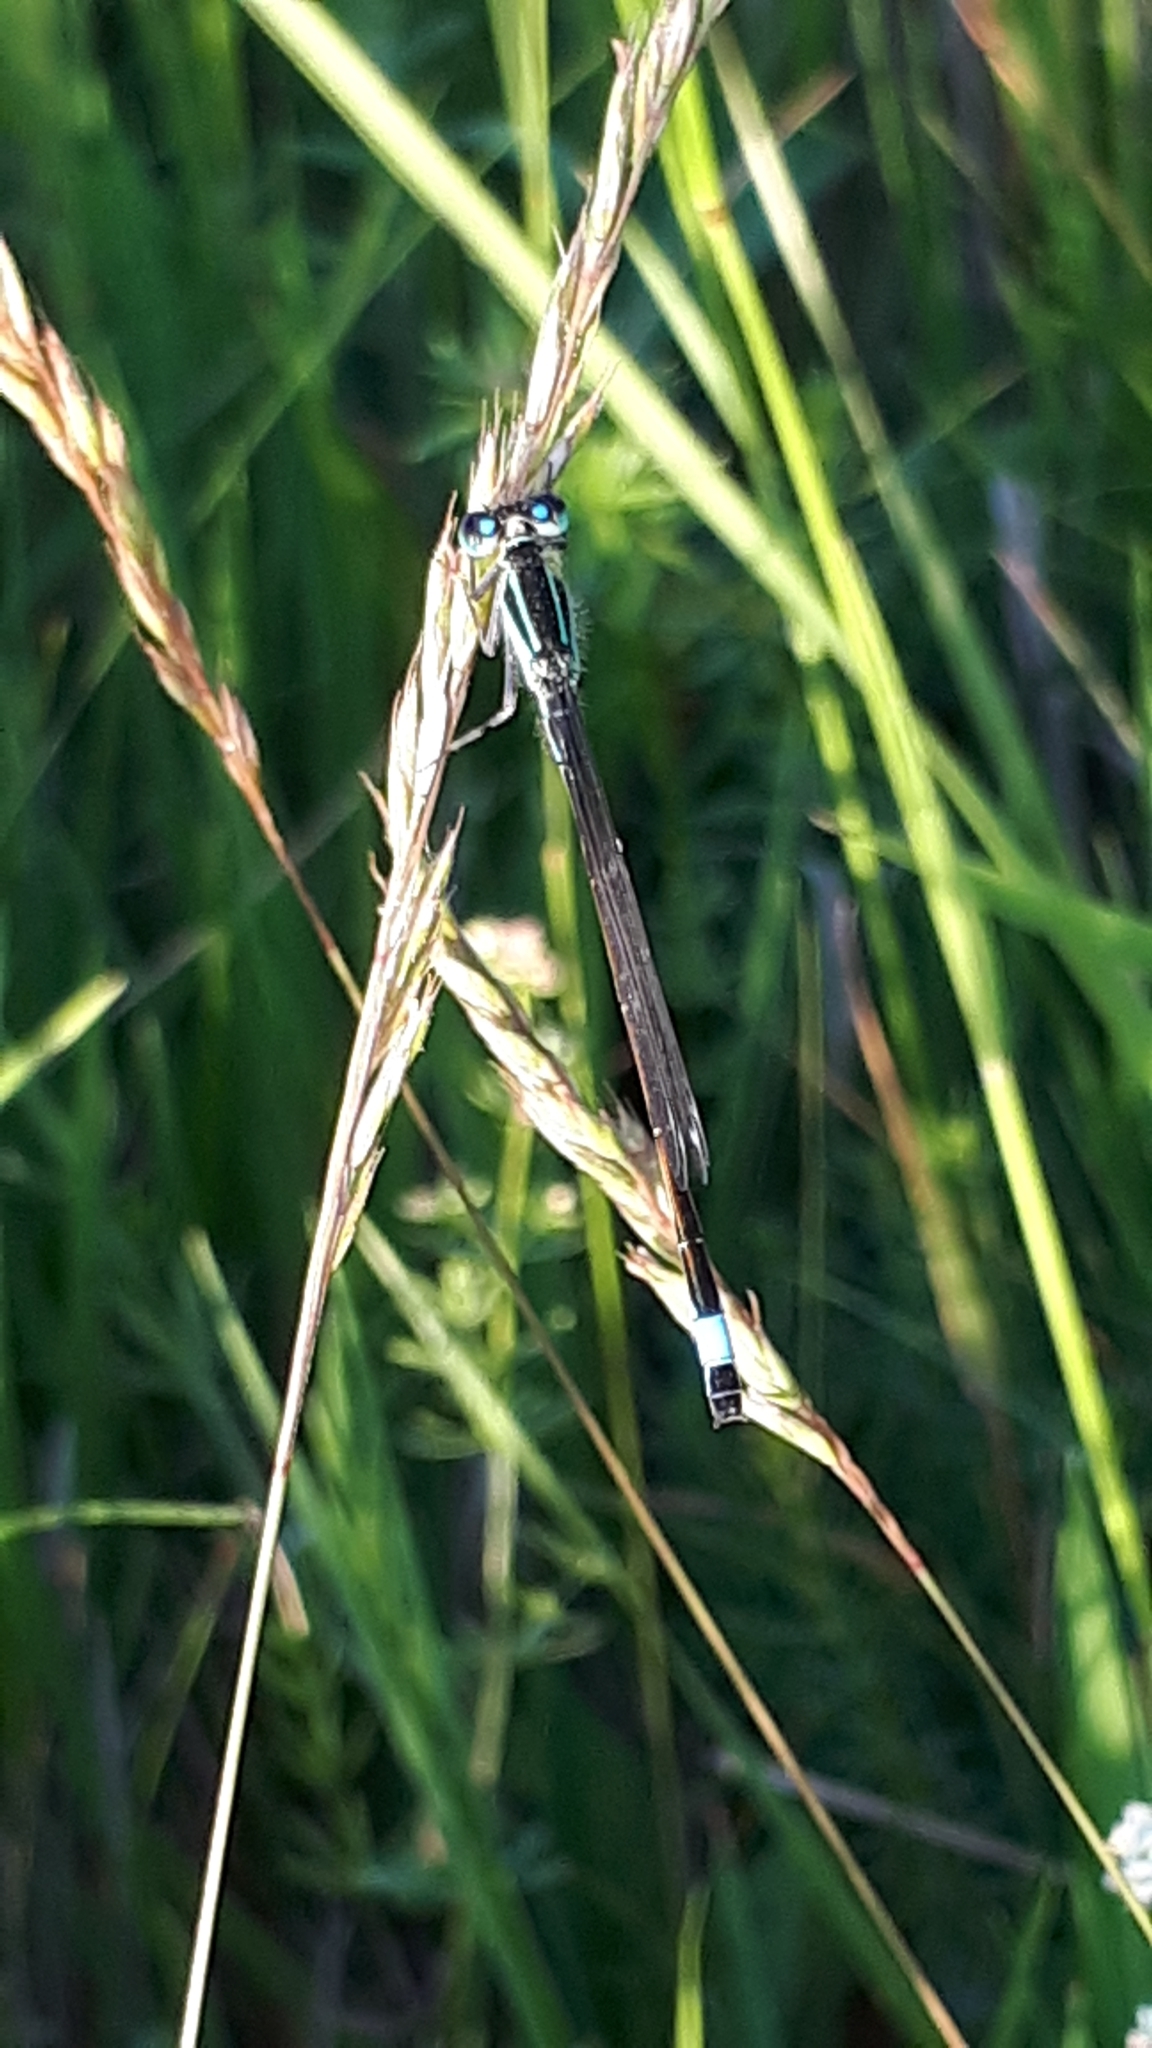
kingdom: Animalia
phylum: Arthropoda
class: Insecta
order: Odonata
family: Coenagrionidae
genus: Ischnura
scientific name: Ischnura elegans
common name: Blue-tailed damselfly
